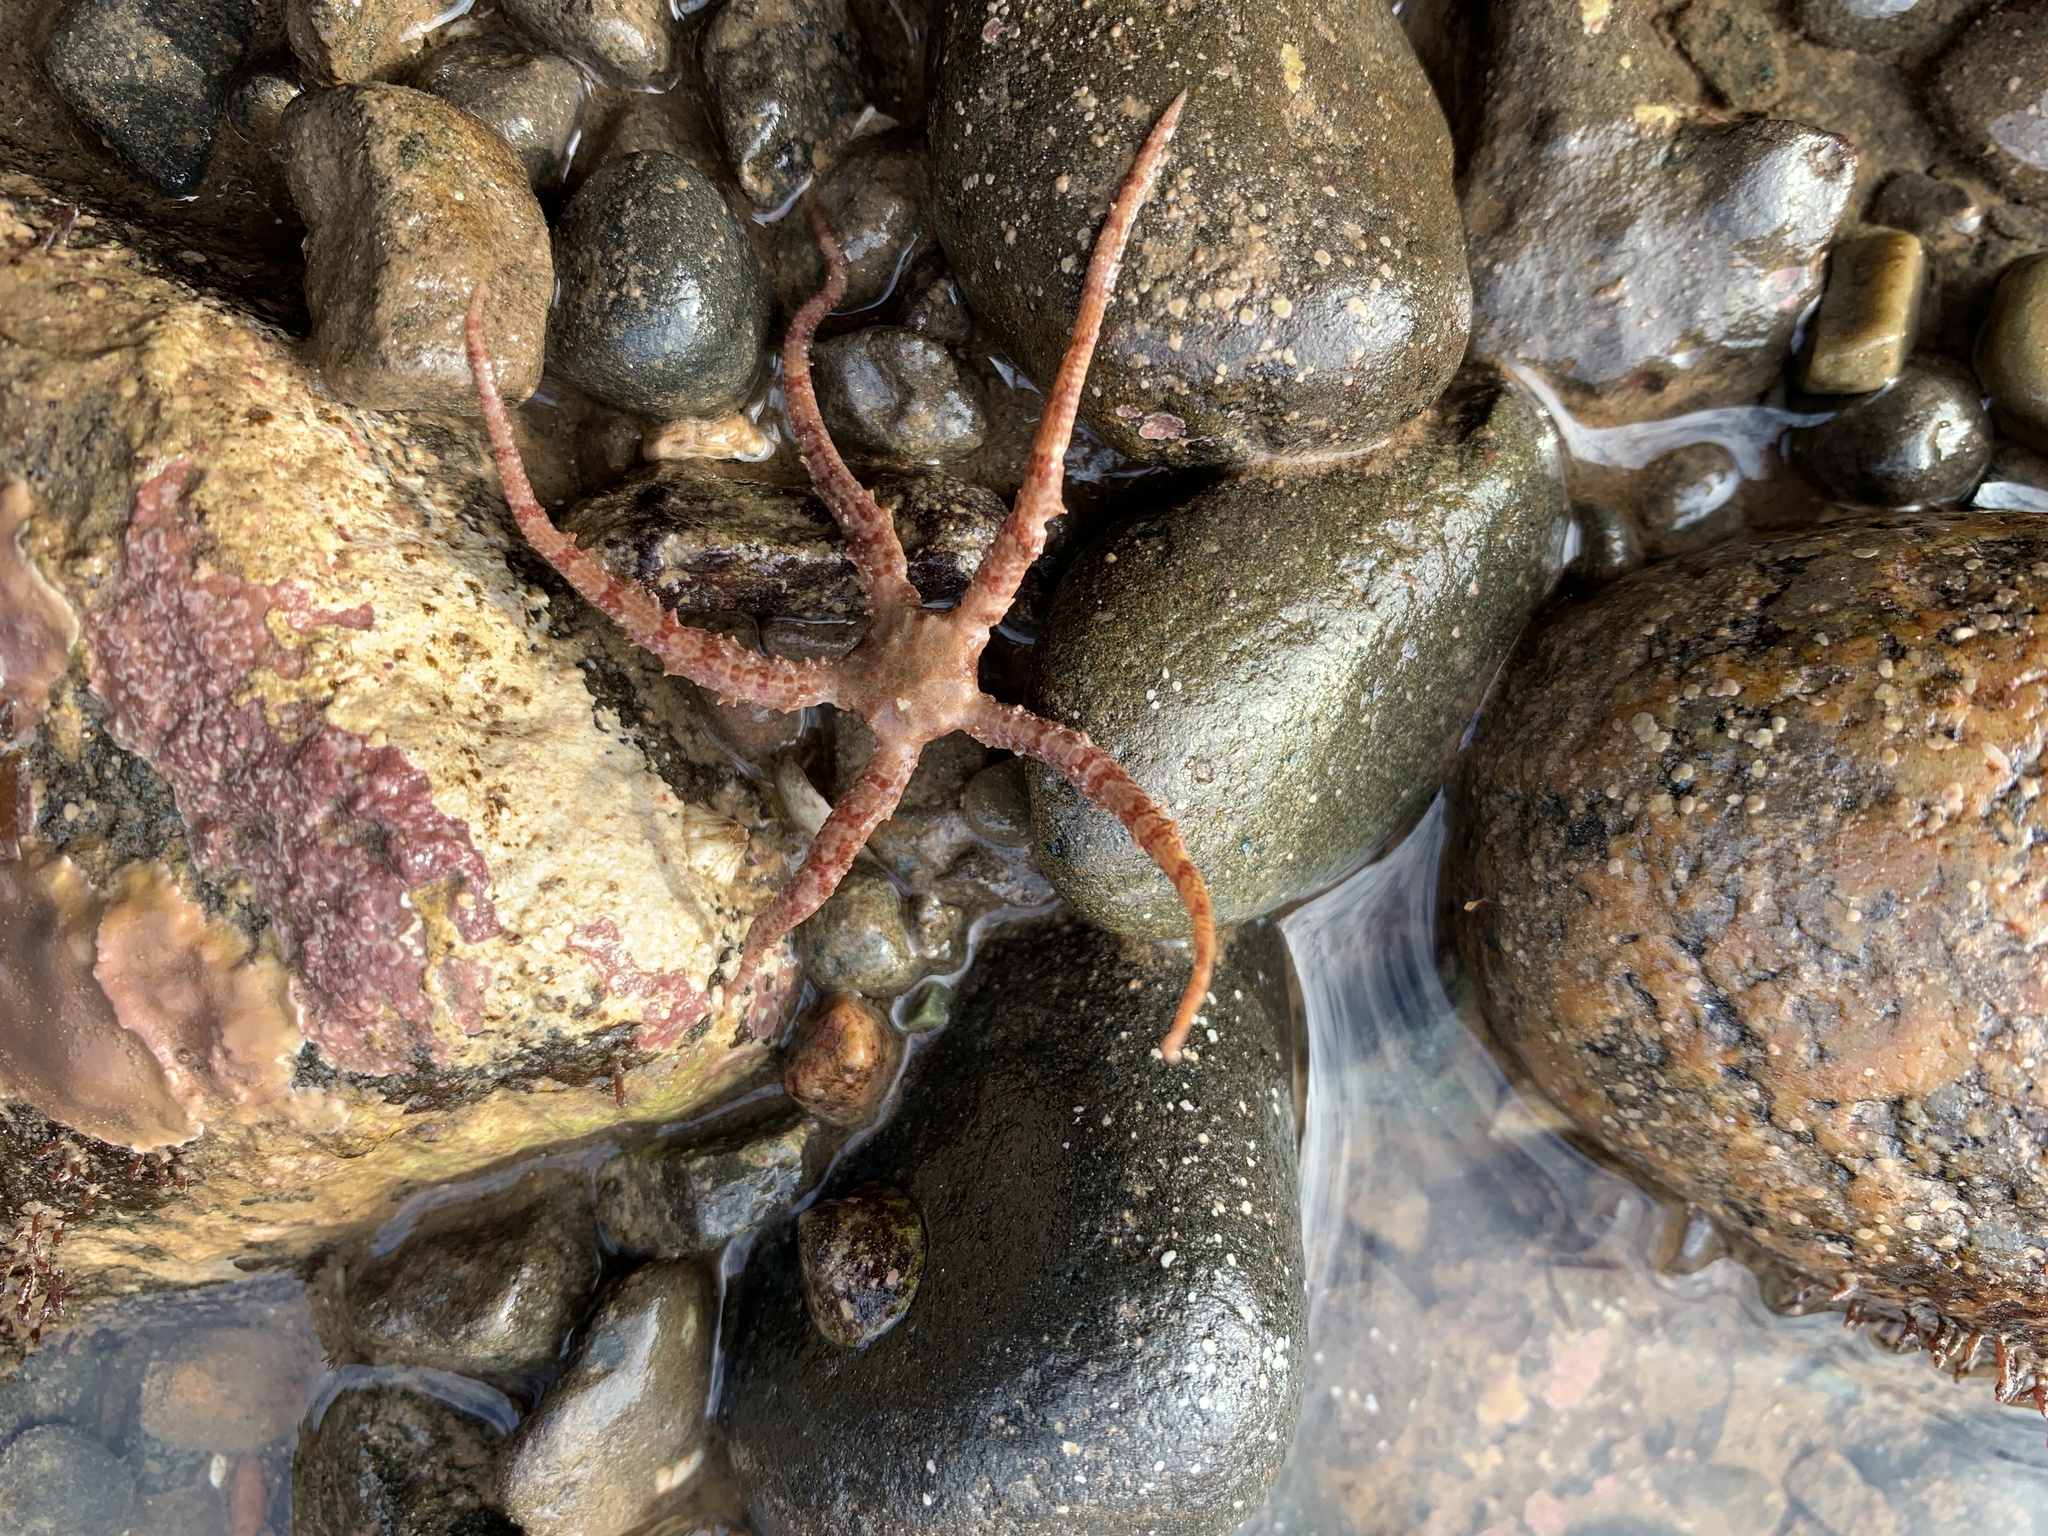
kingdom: Animalia
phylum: Echinodermata
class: Ophiuroidea
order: Amphilepidida
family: Ophiopholidae
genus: Ophiopholis
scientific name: Ophiopholis aculeata
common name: Crevice brittlestar
